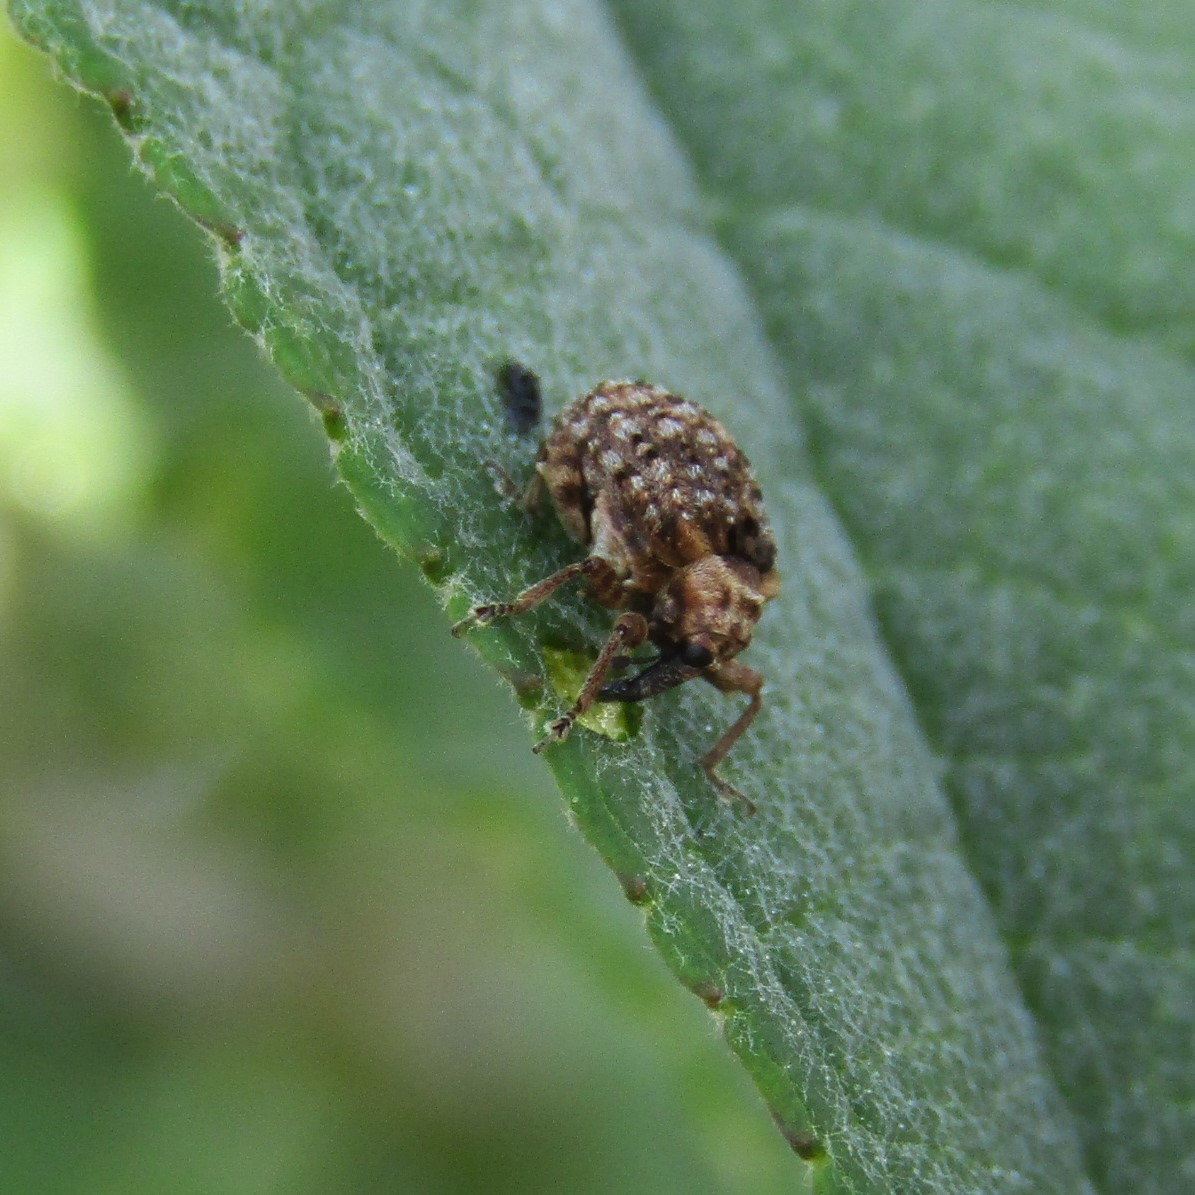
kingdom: Animalia
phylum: Arthropoda
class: Insecta
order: Coleoptera
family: Curculionidae
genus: Cleopus
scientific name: Cleopus japonicus
